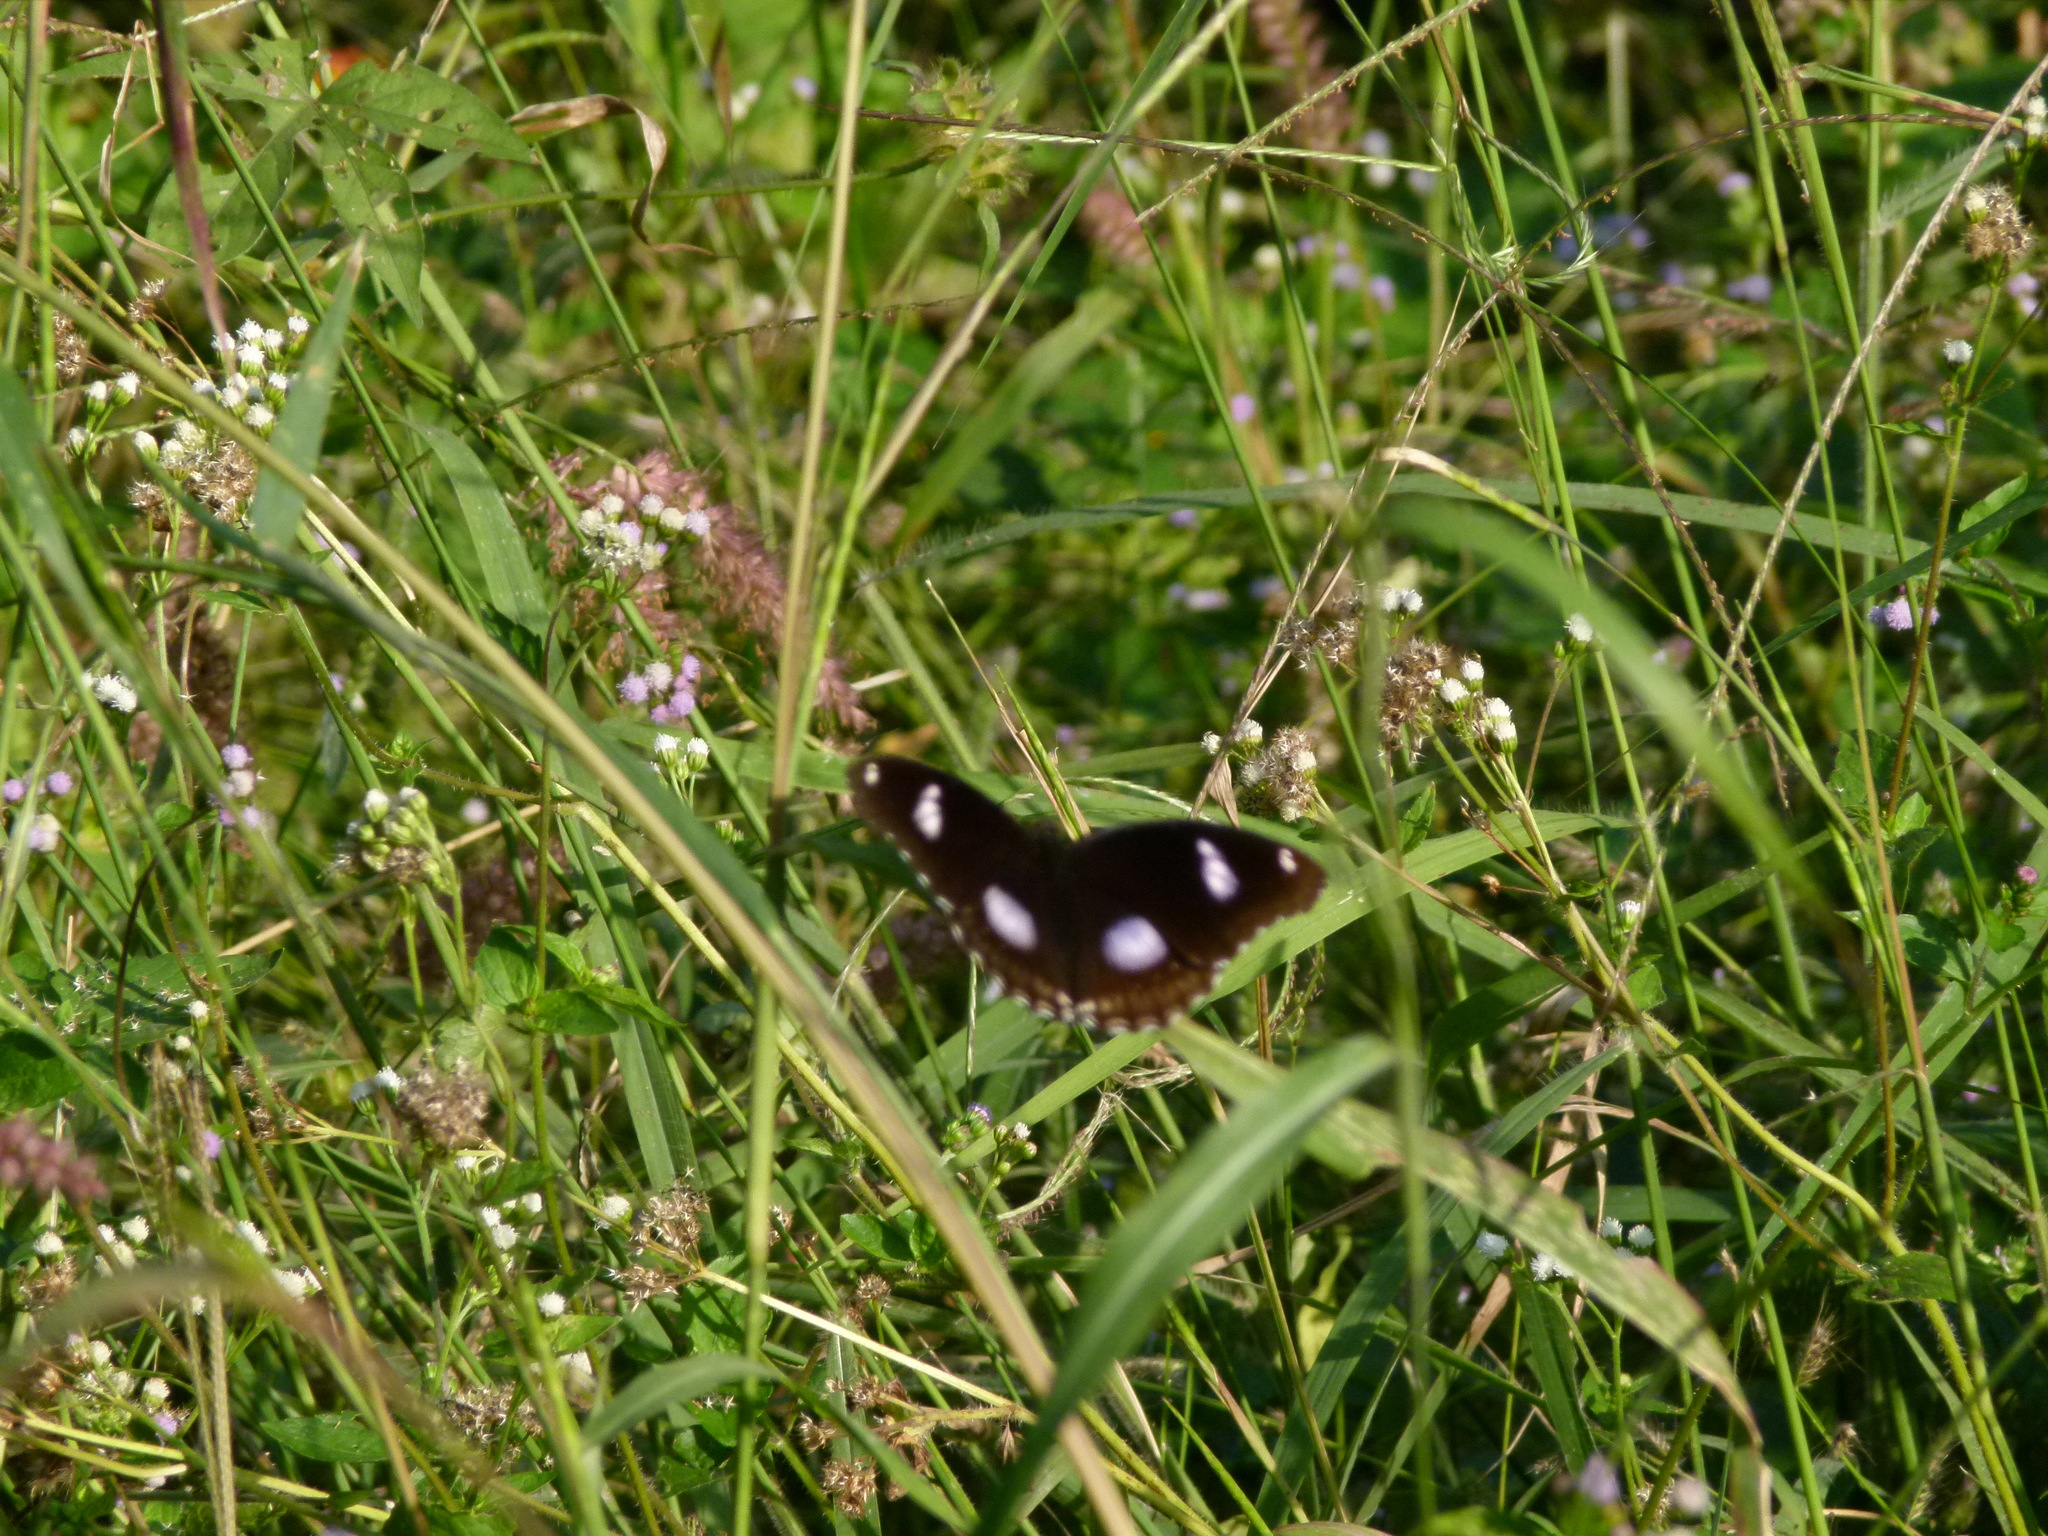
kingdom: Animalia
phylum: Arthropoda
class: Insecta
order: Lepidoptera
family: Nymphalidae
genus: Hypolimnas
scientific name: Hypolimnas bolina
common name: Great eggfly
